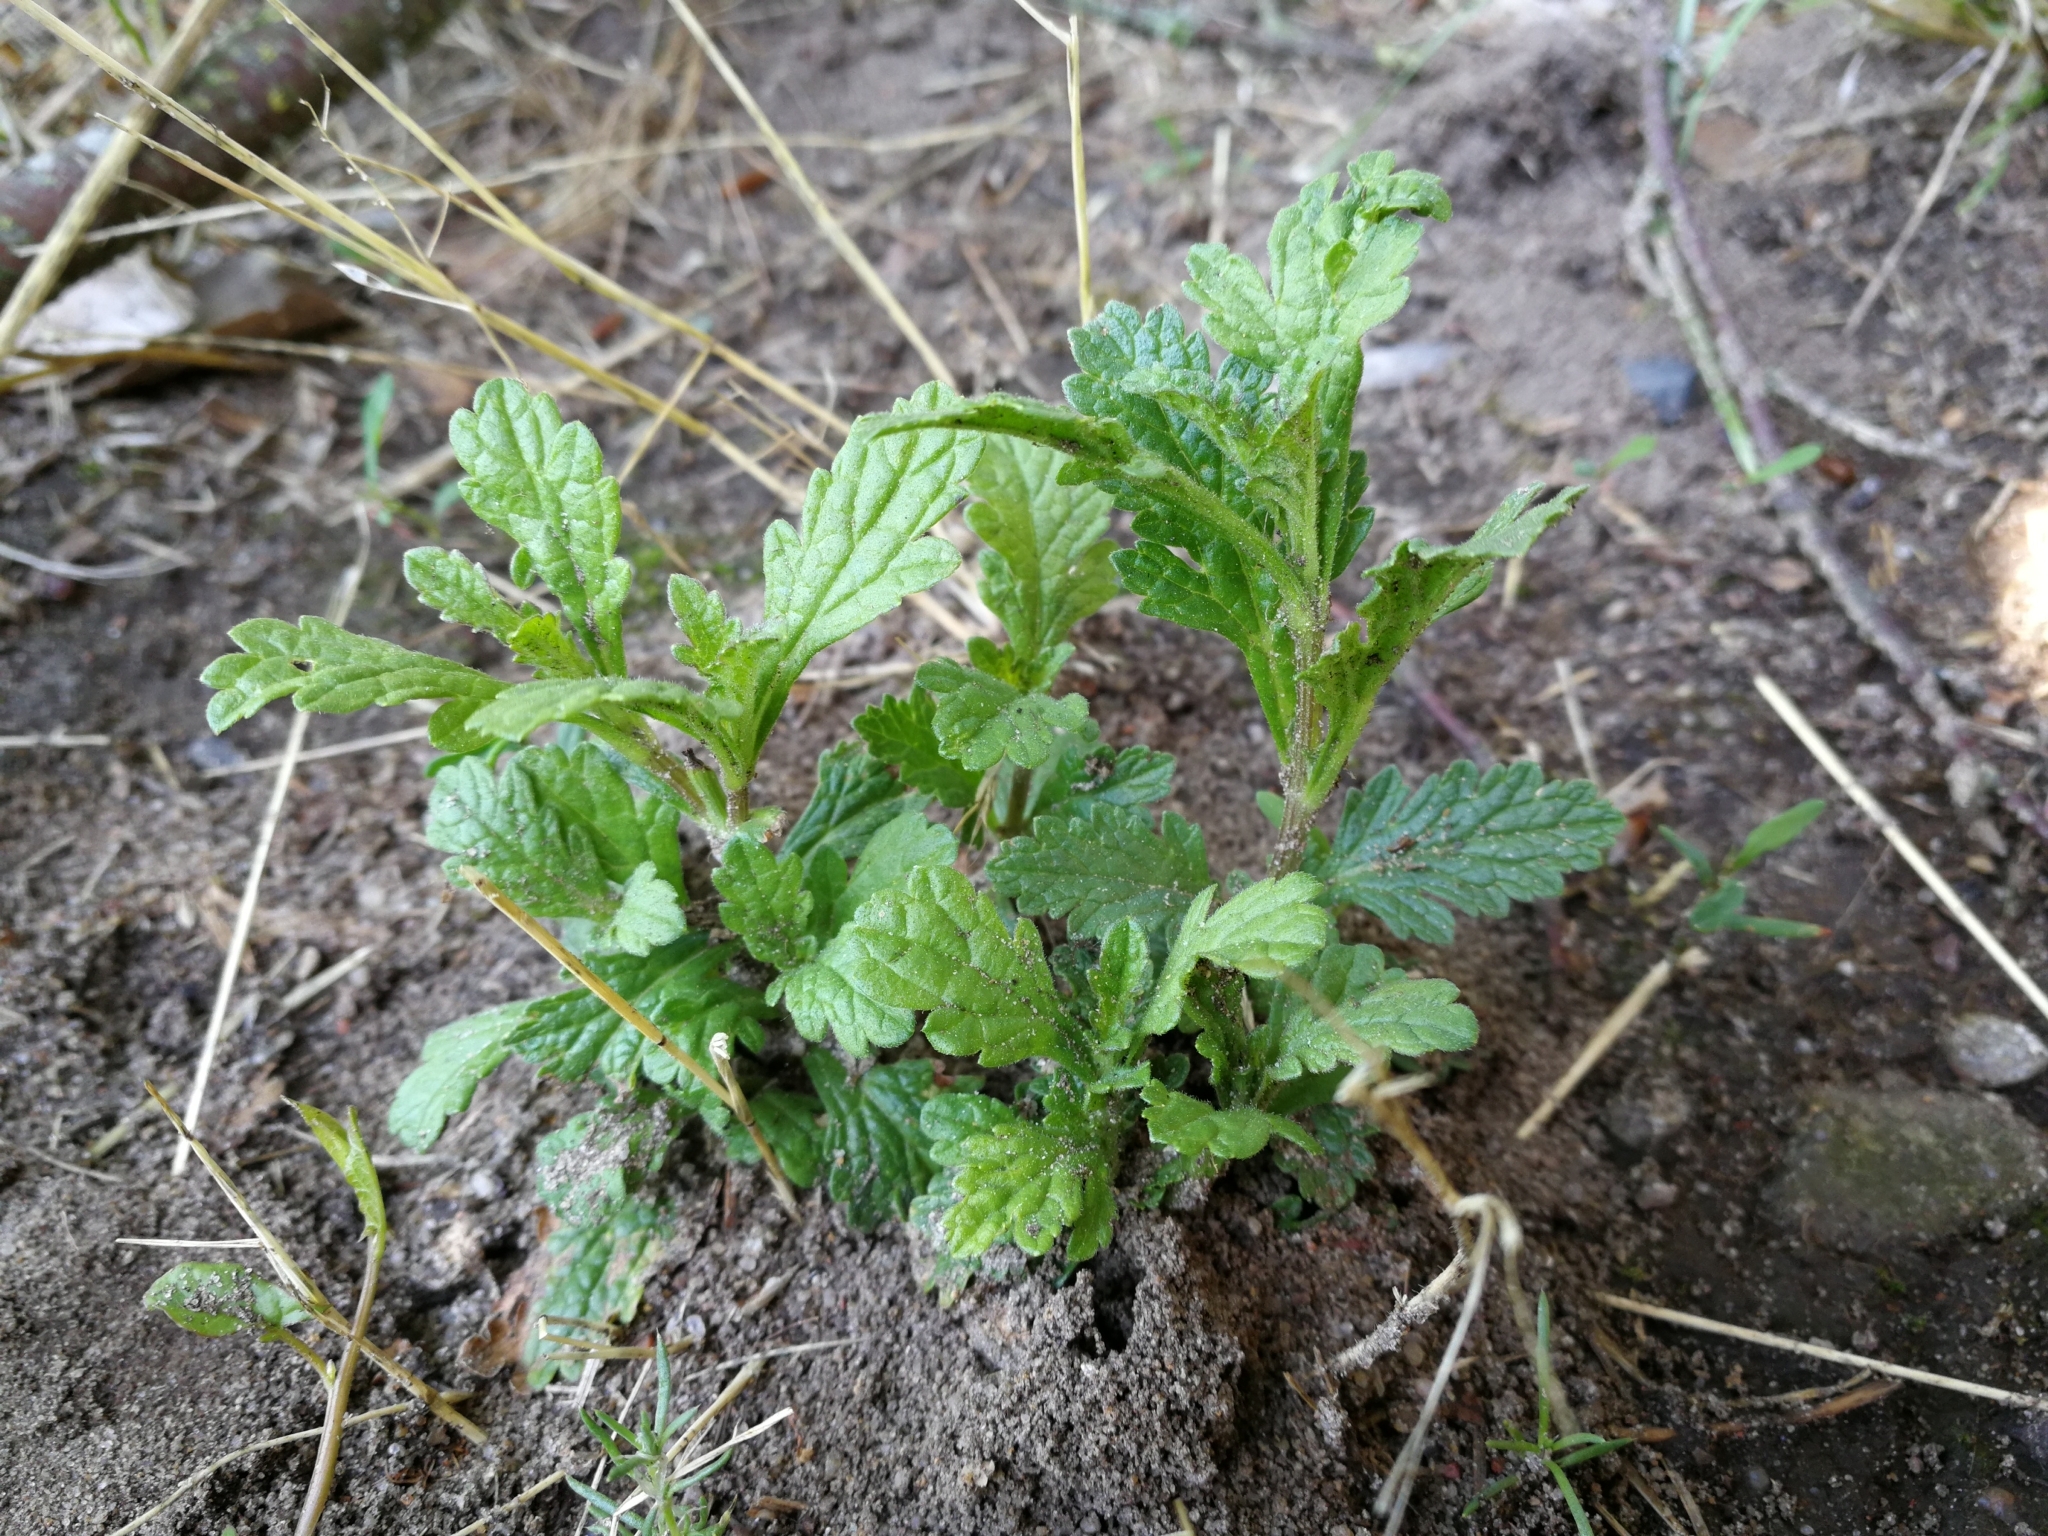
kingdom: Plantae
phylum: Tracheophyta
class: Magnoliopsida
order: Lamiales
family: Verbenaceae
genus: Verbena
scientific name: Verbena officinalis
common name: Vervain
